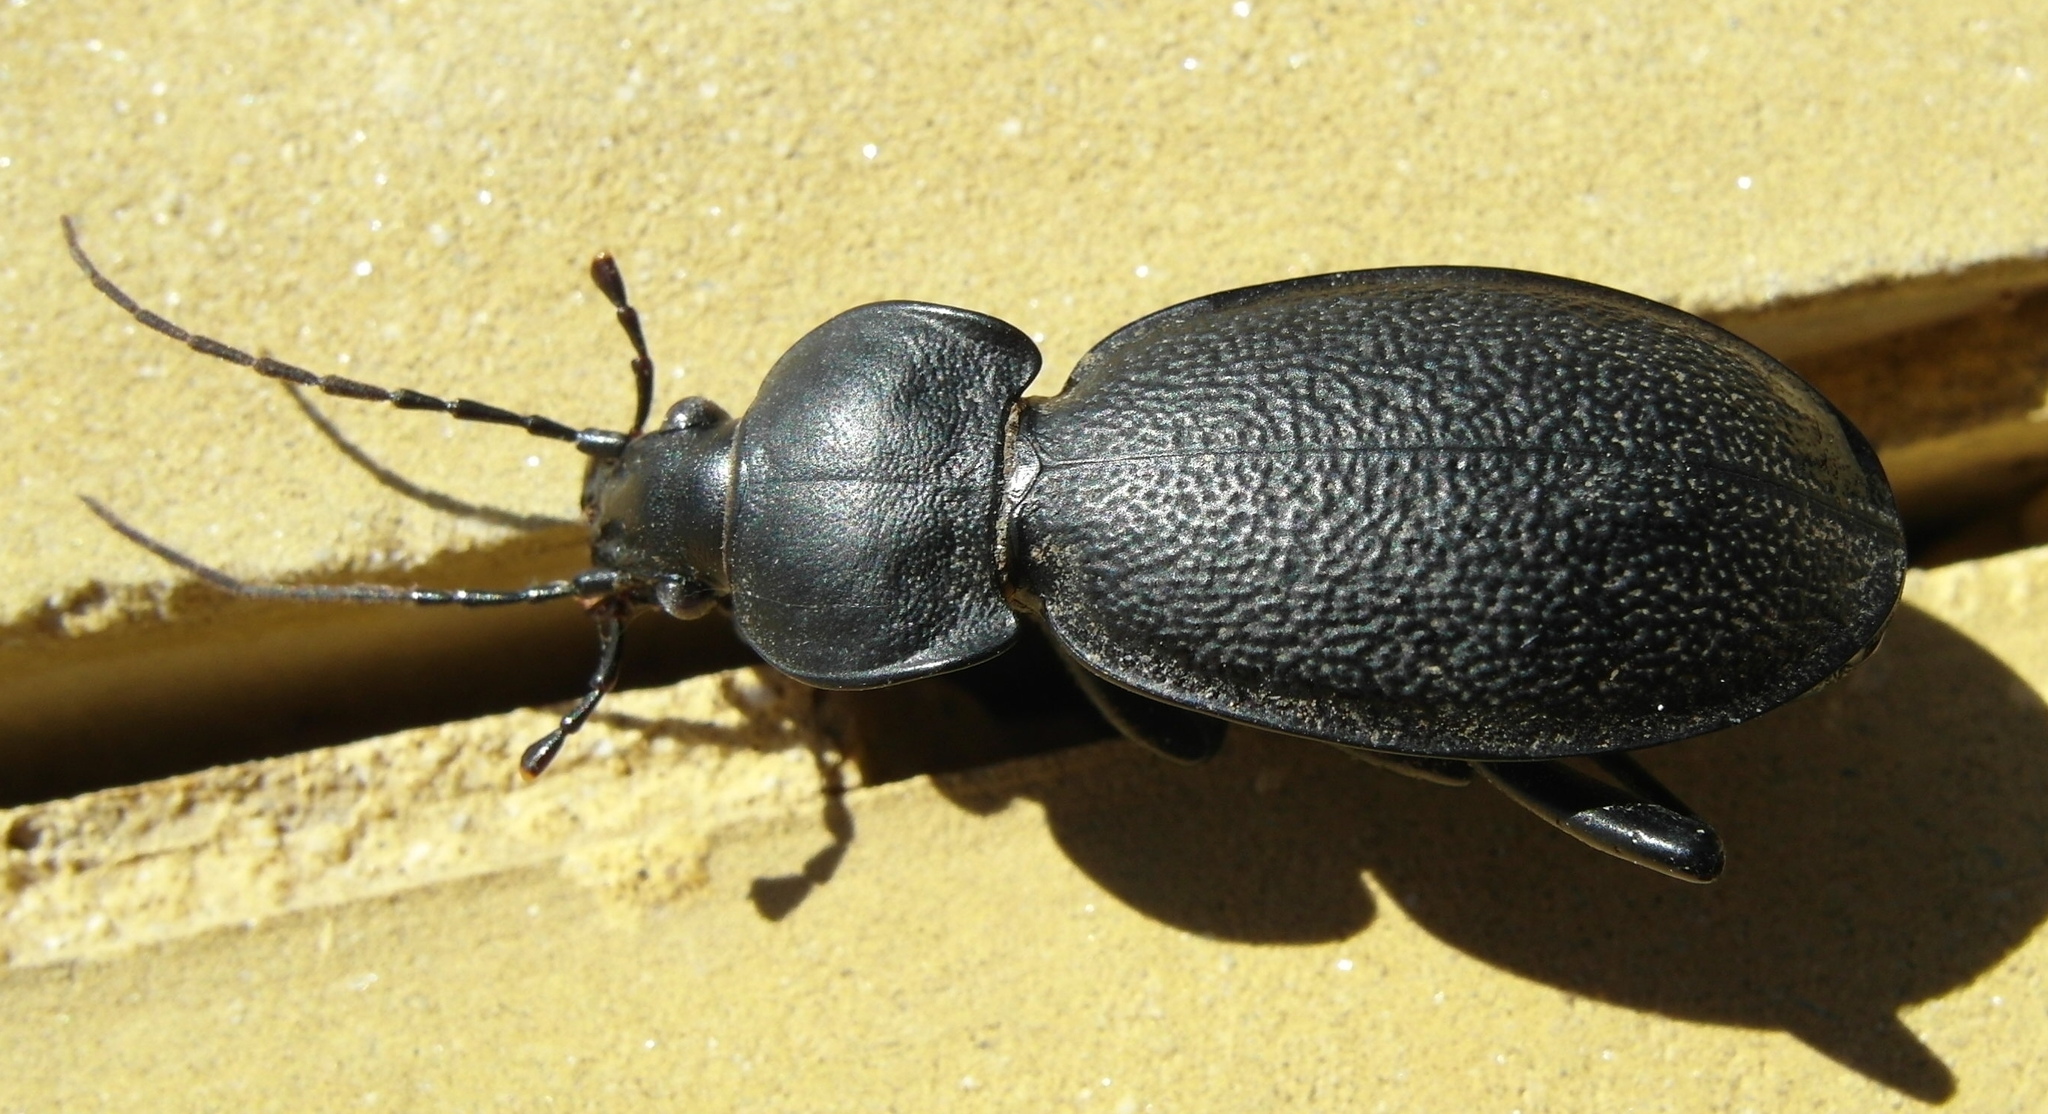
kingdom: Animalia
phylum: Arthropoda
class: Insecta
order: Coleoptera
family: Carabidae
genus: Carabus
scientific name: Carabus coriaceus
